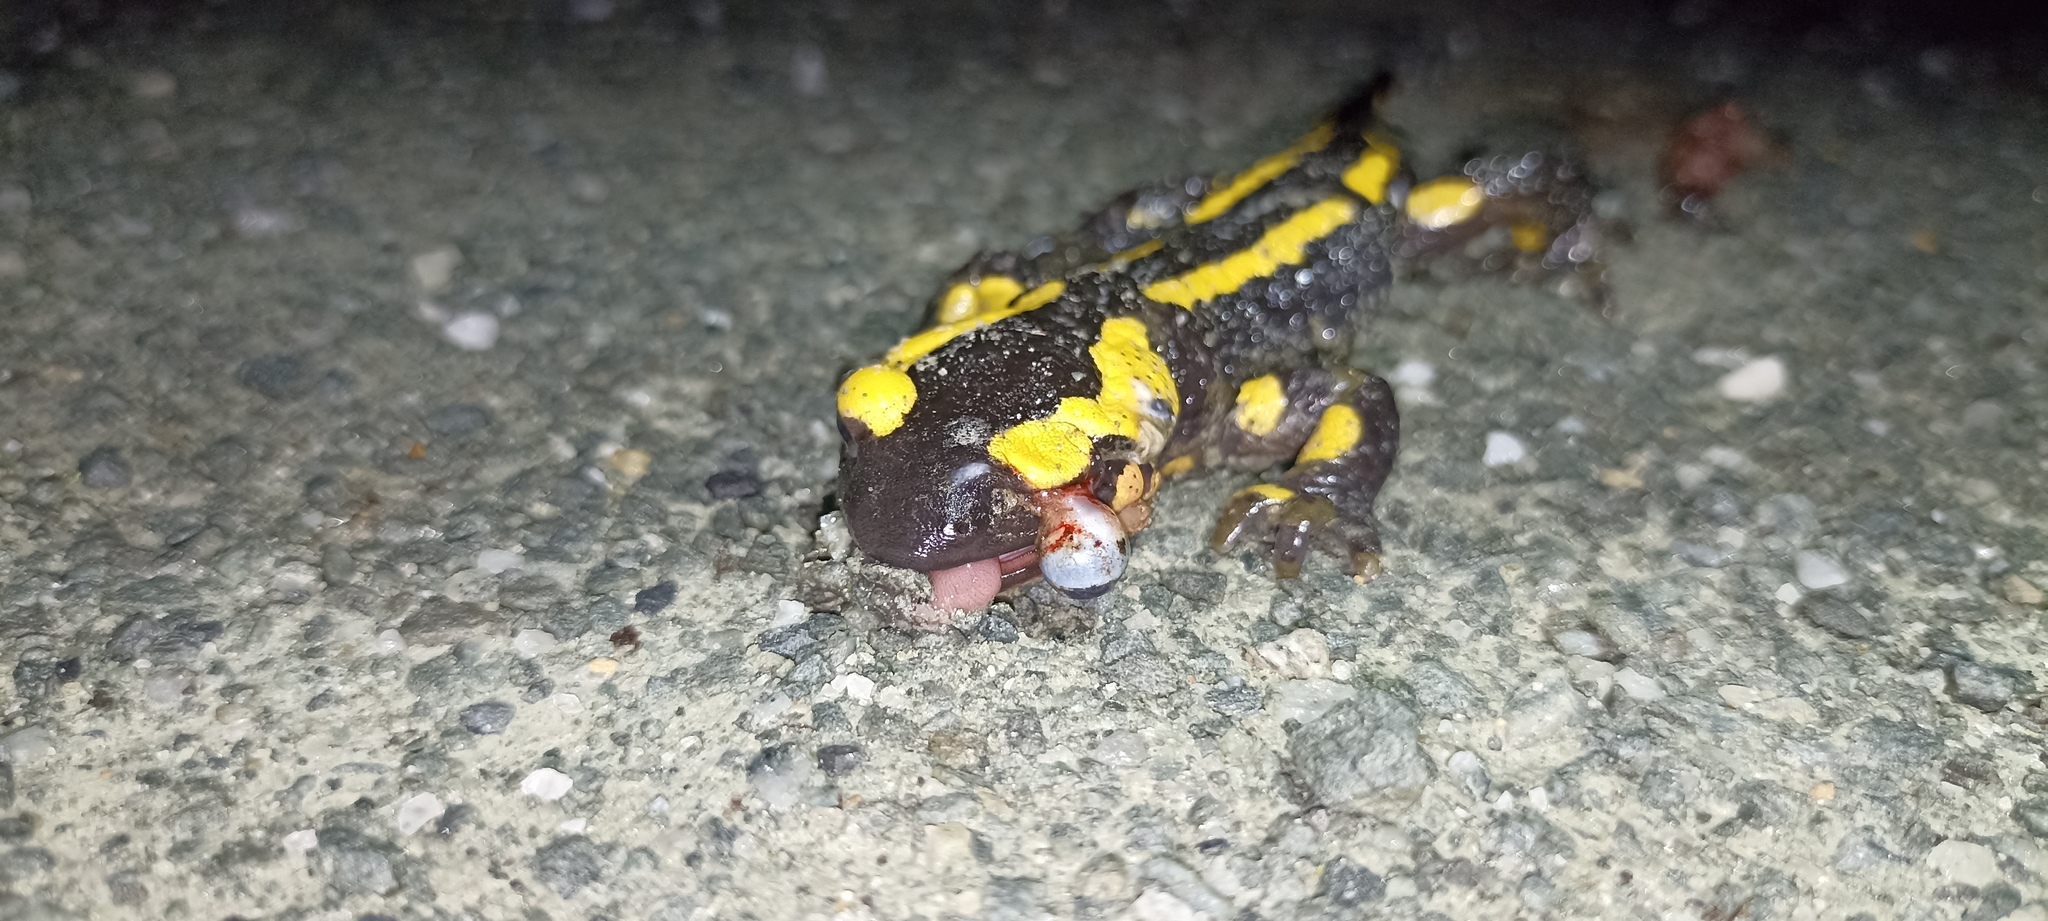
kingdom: Animalia
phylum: Chordata
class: Amphibia
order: Caudata
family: Salamandridae
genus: Salamandra
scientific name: Salamandra salamandra
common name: Fire salamander
